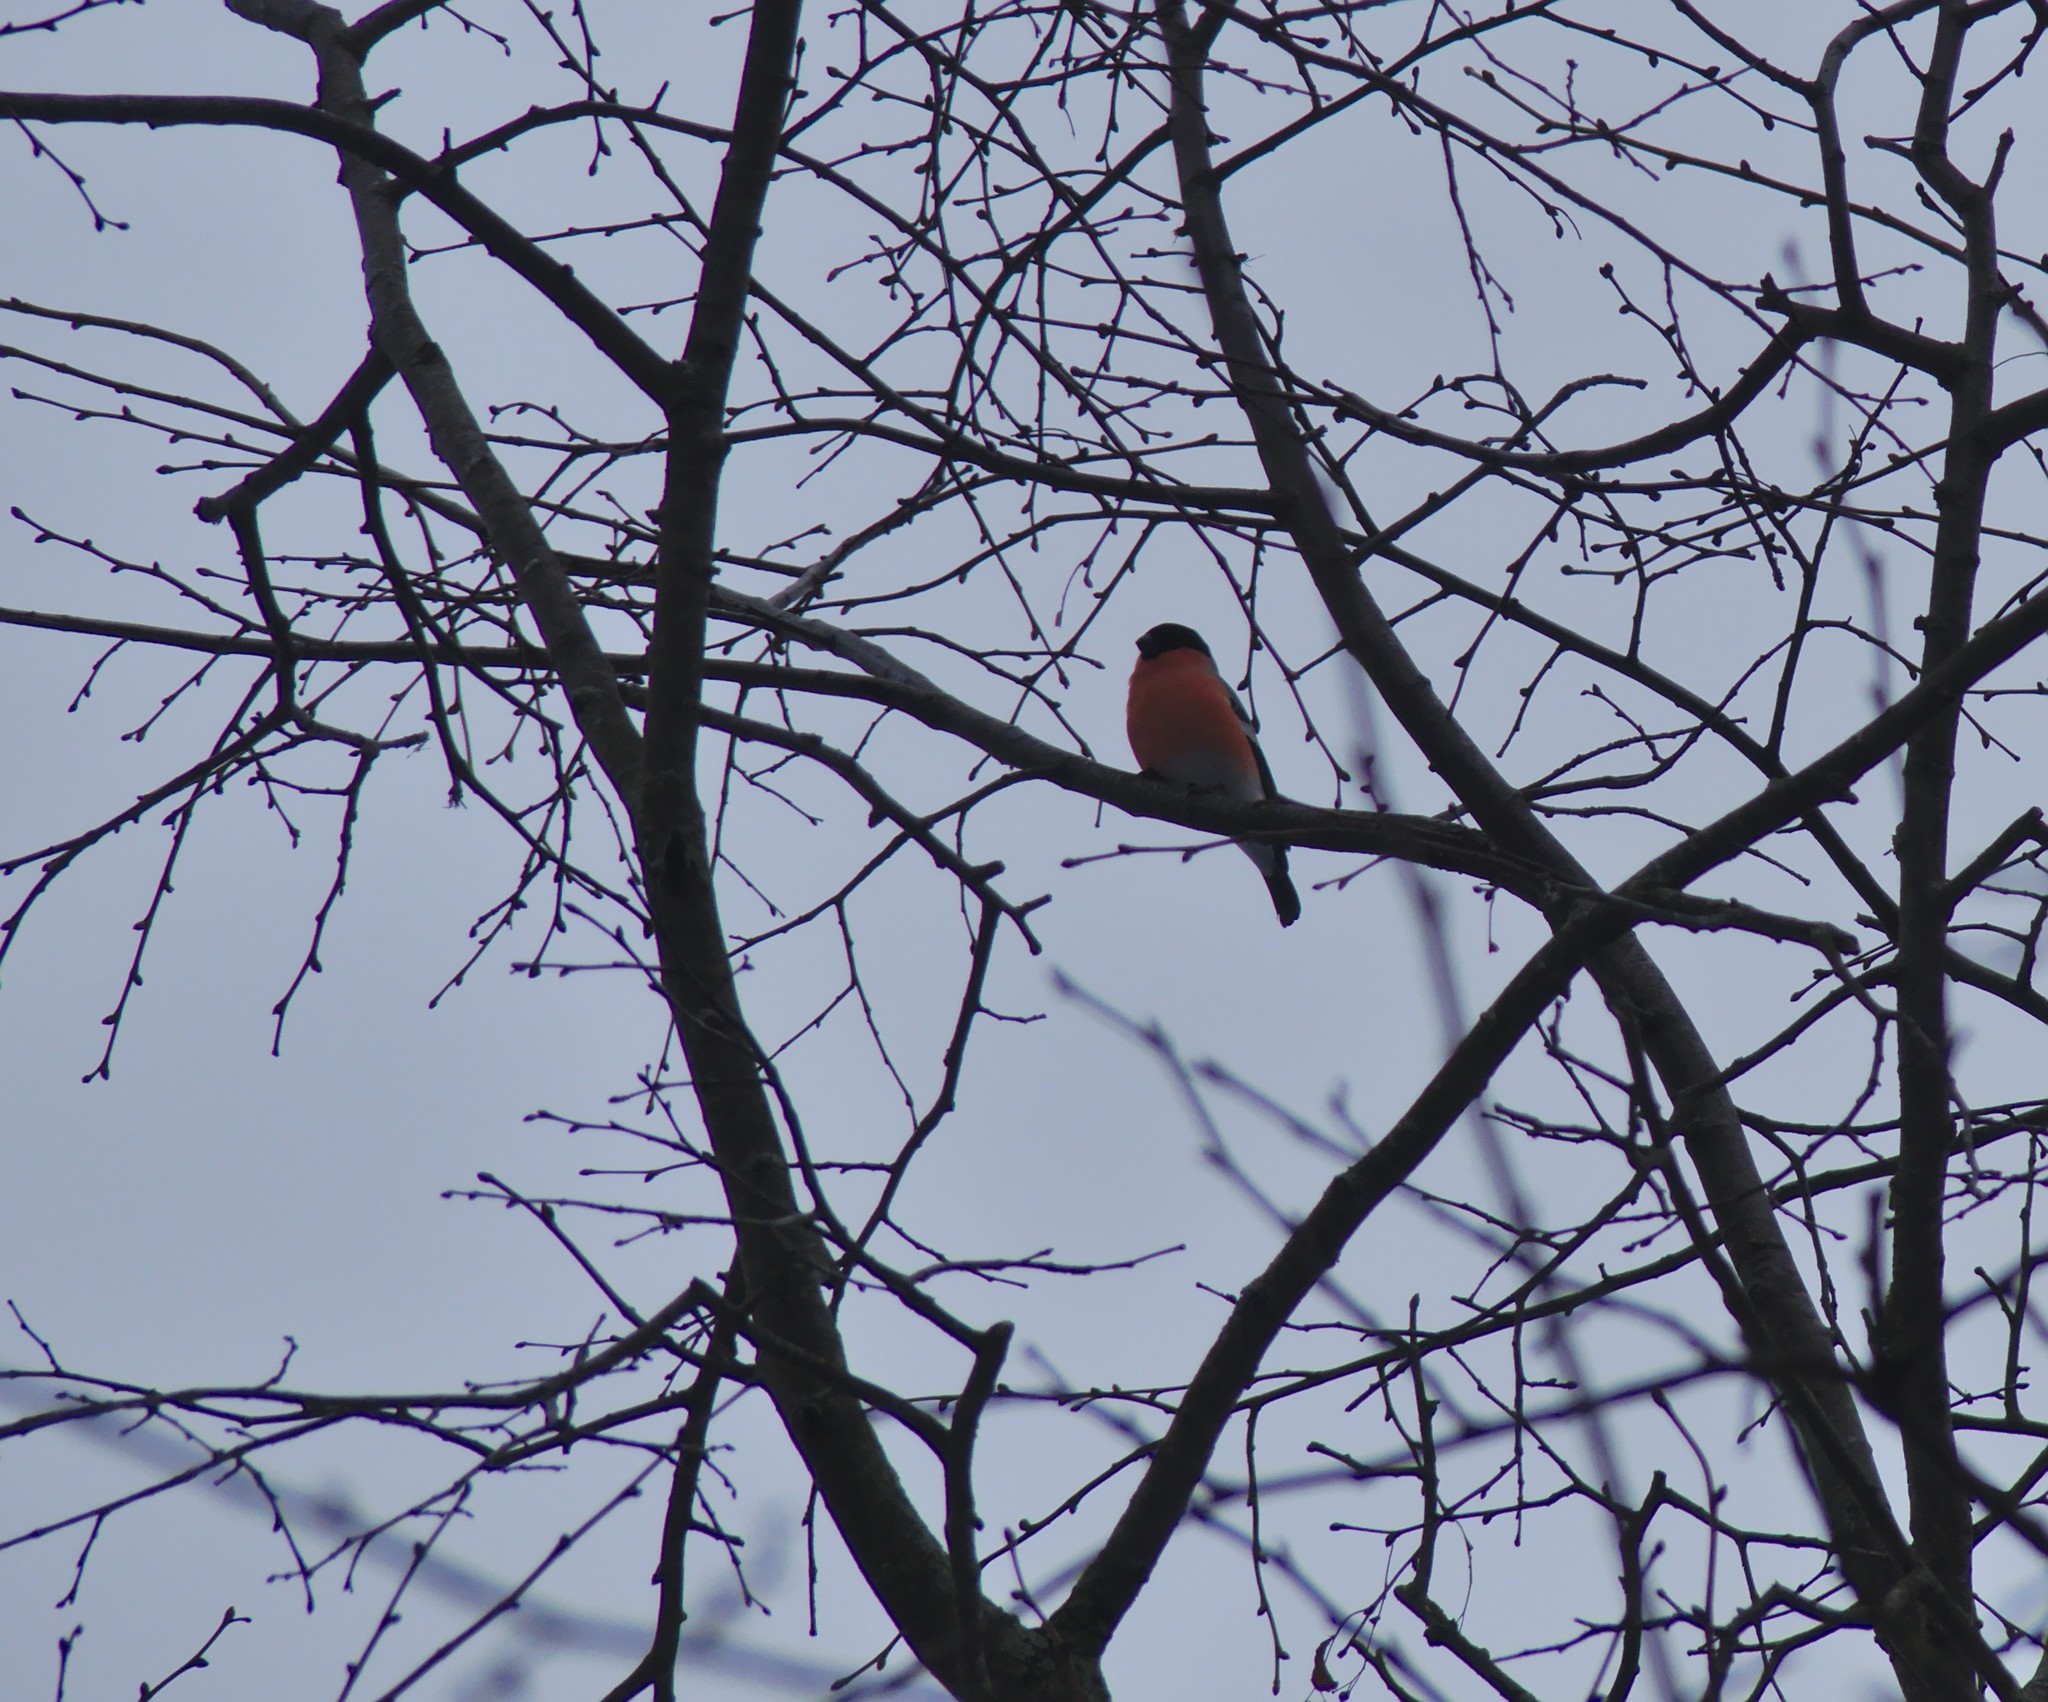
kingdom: Animalia
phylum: Chordata
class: Aves
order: Passeriformes
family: Fringillidae
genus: Pyrrhula
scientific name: Pyrrhula pyrrhula
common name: Eurasian bullfinch
